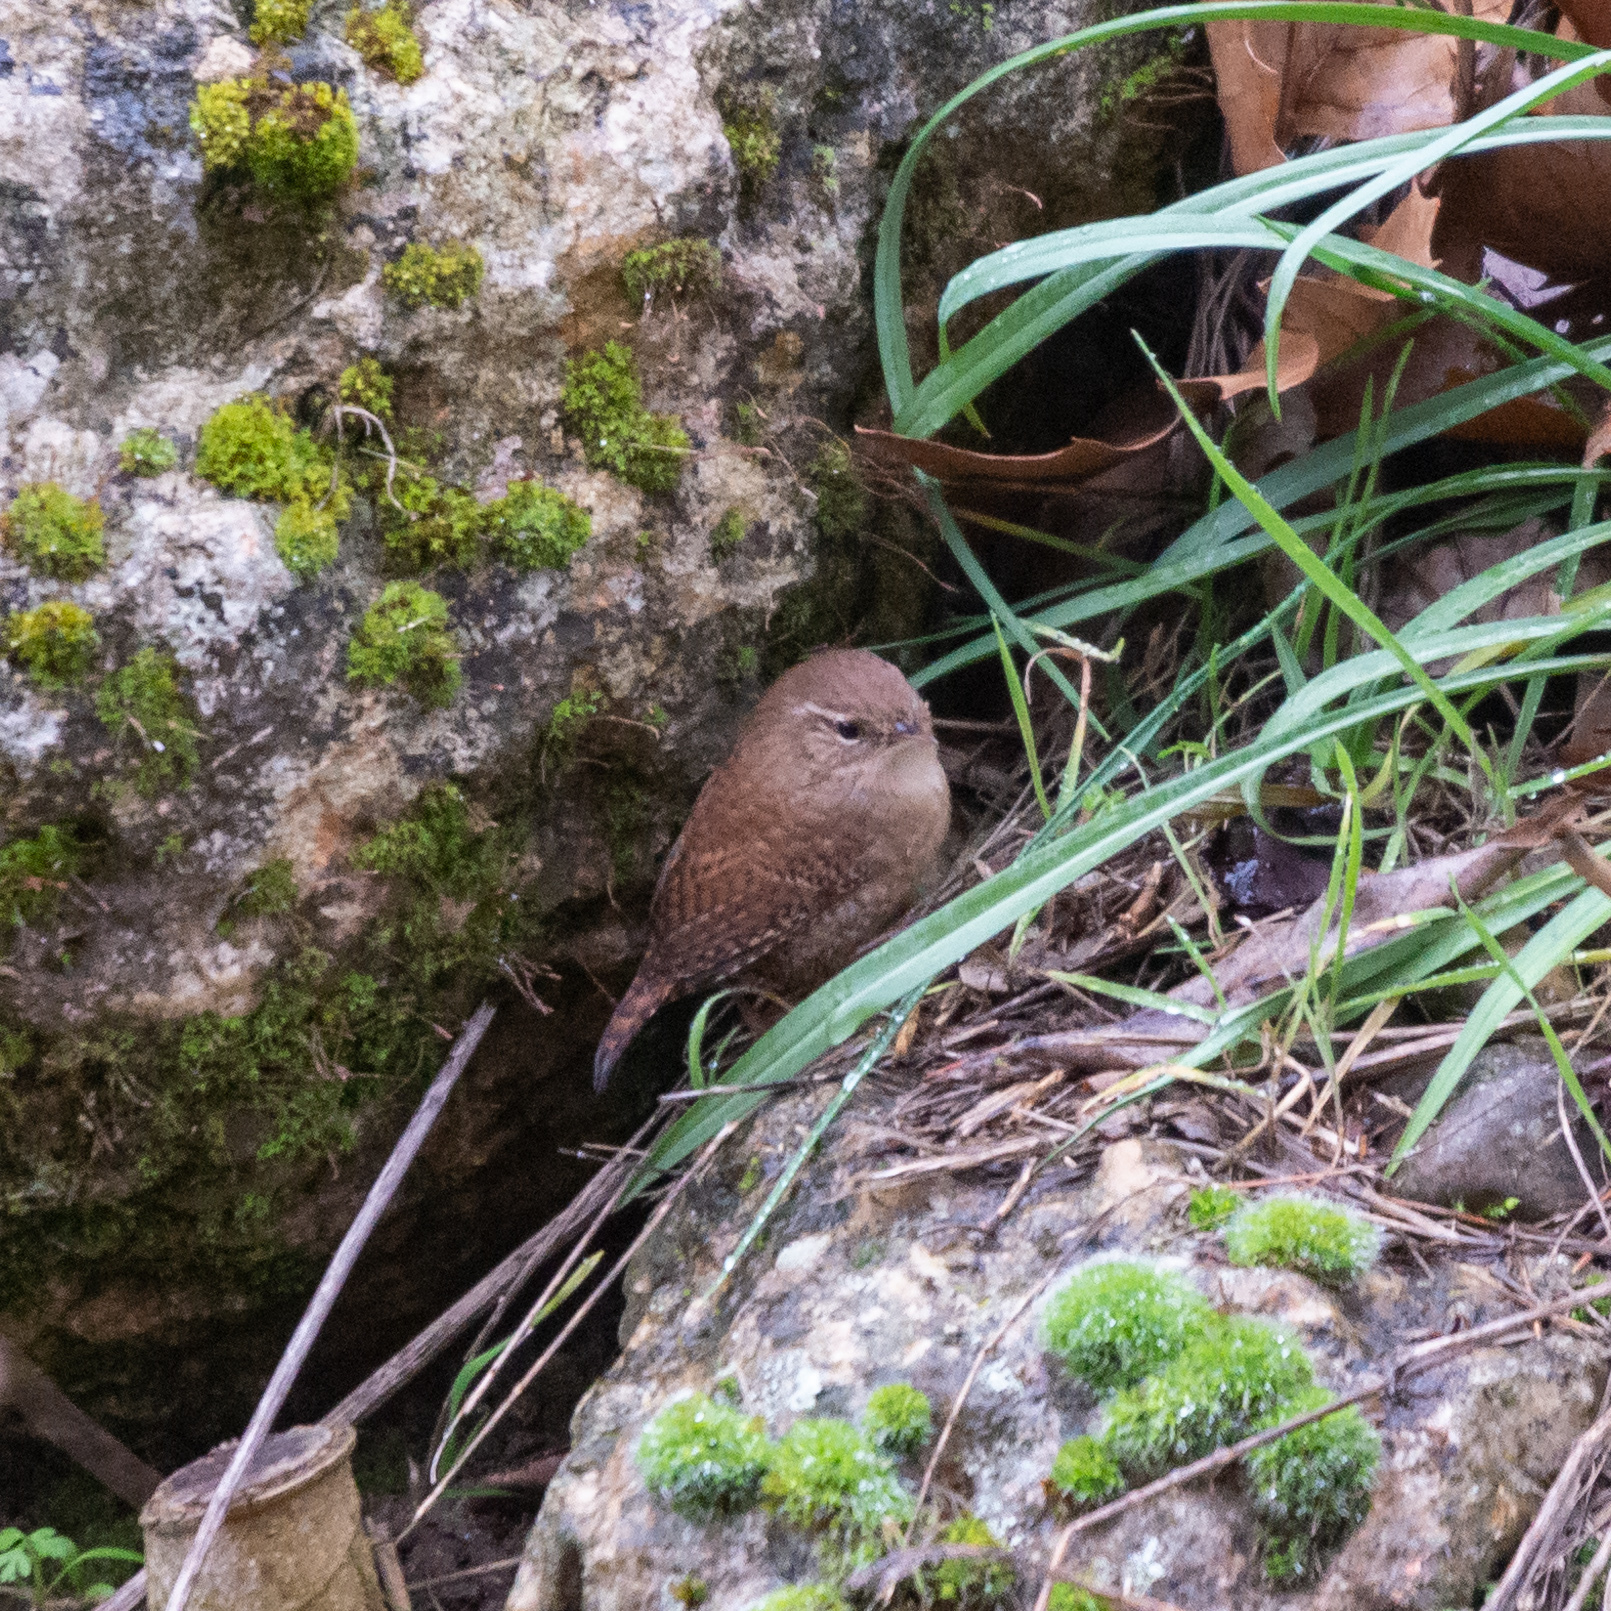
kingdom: Animalia
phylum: Chordata
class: Aves
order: Passeriformes
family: Troglodytidae
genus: Troglodytes
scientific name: Troglodytes troglodytes
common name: Eurasian wren
